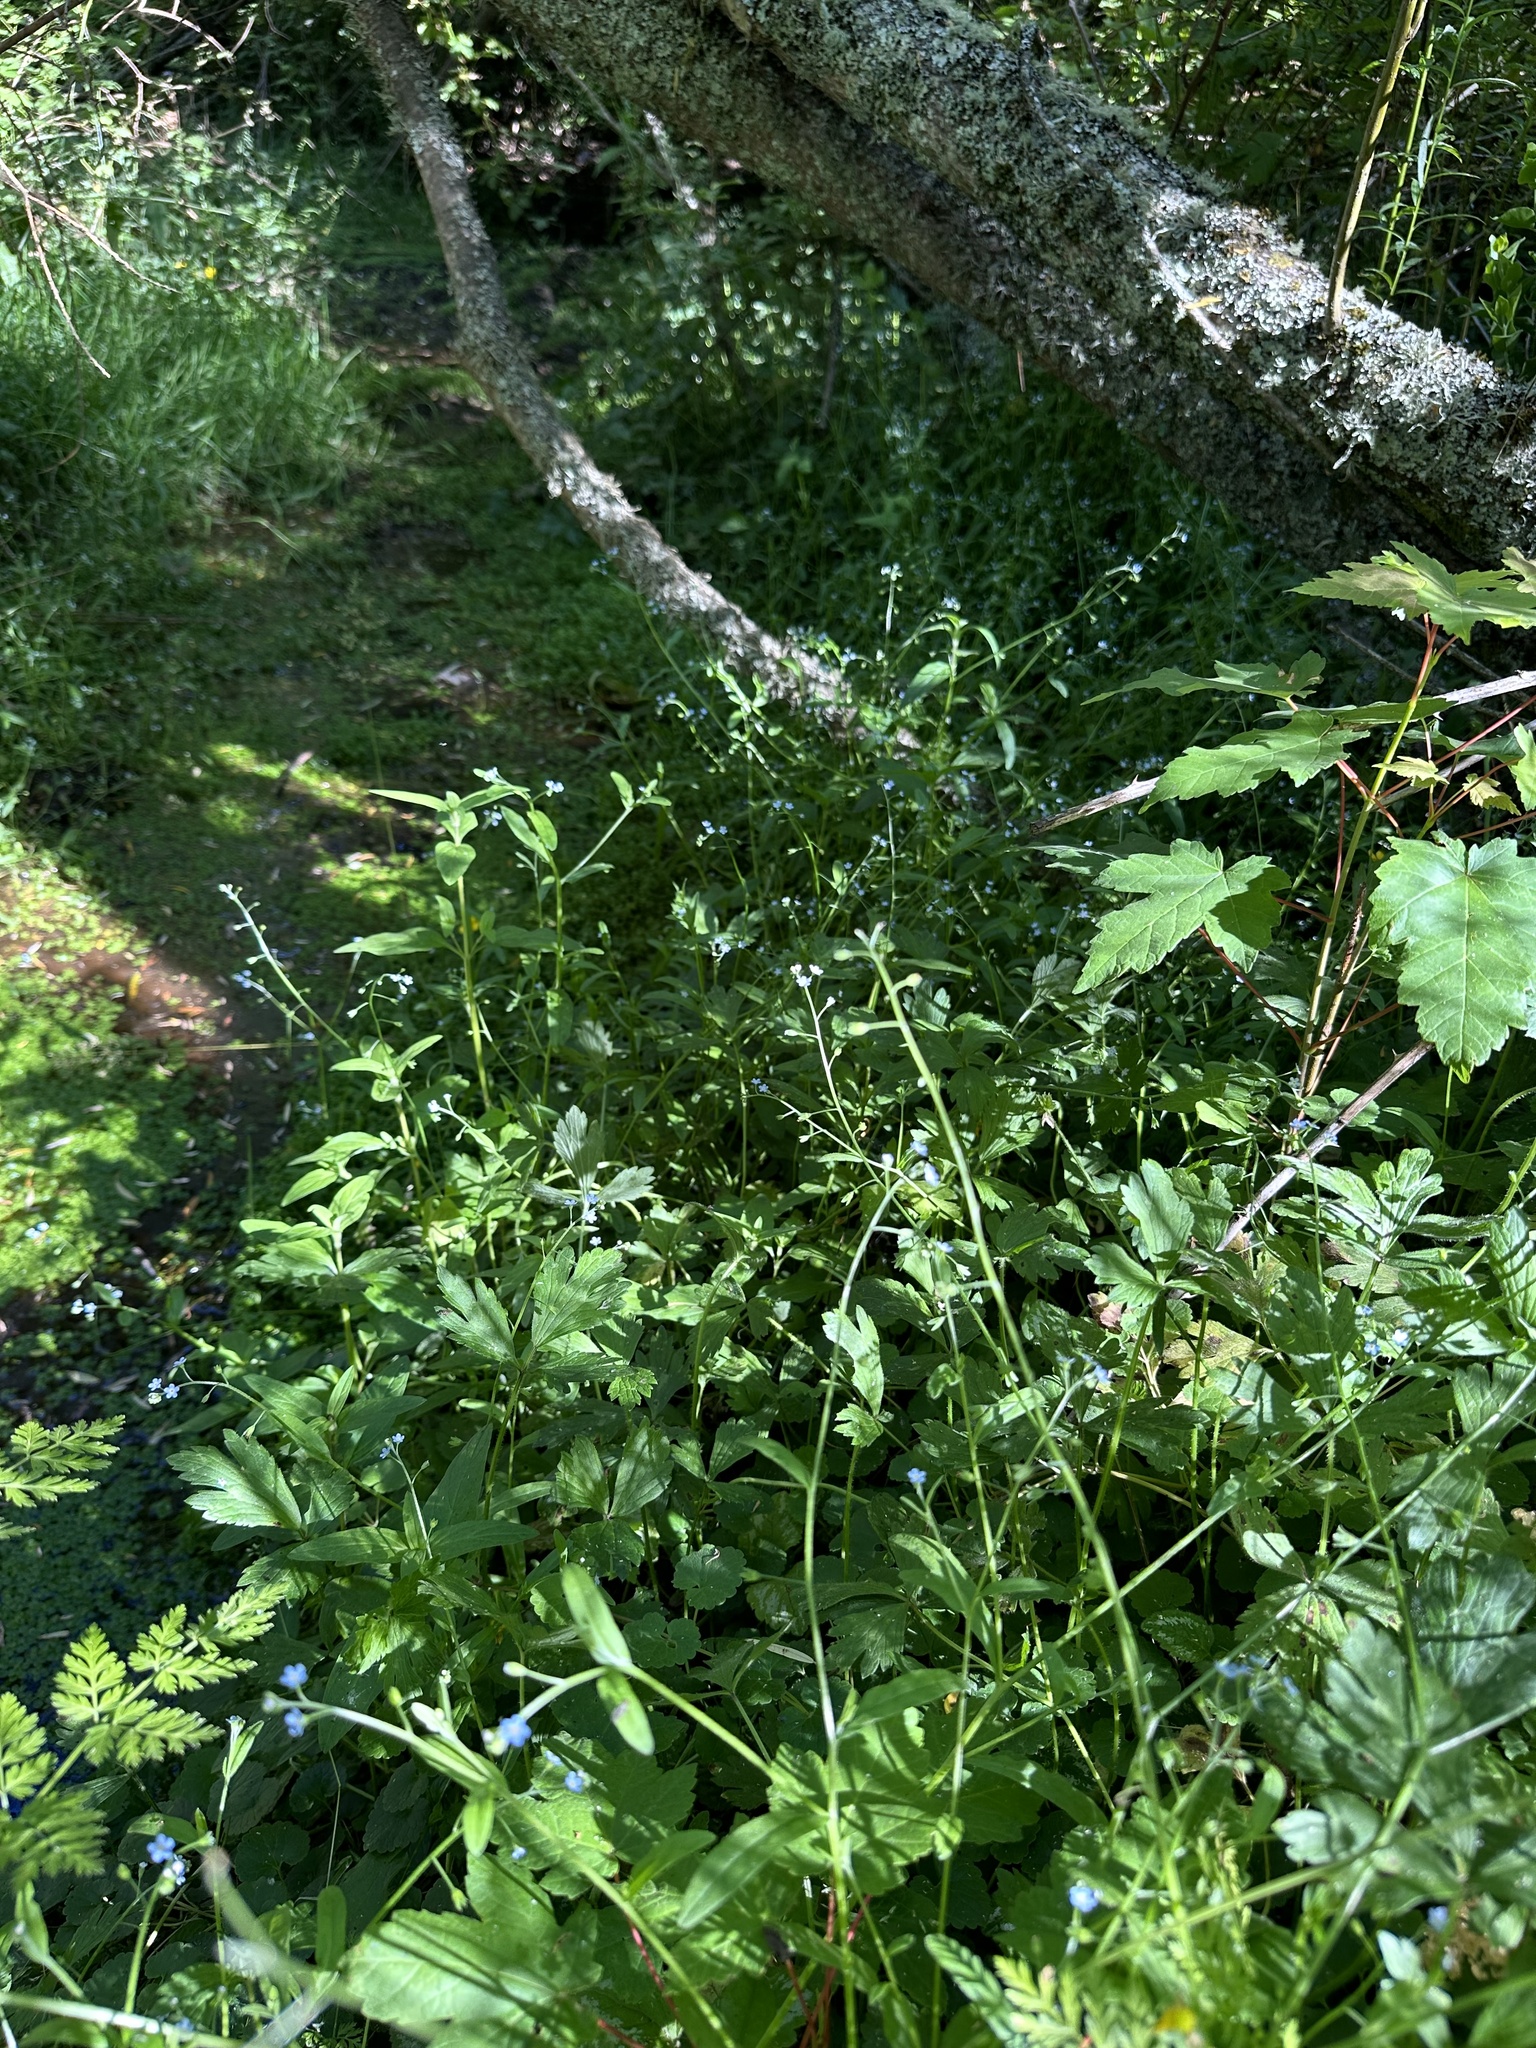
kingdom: Plantae
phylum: Tracheophyta
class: Magnoliopsida
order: Boraginales
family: Boraginaceae
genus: Myosotis
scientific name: Myosotis scorpioides
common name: Water forget-me-not
